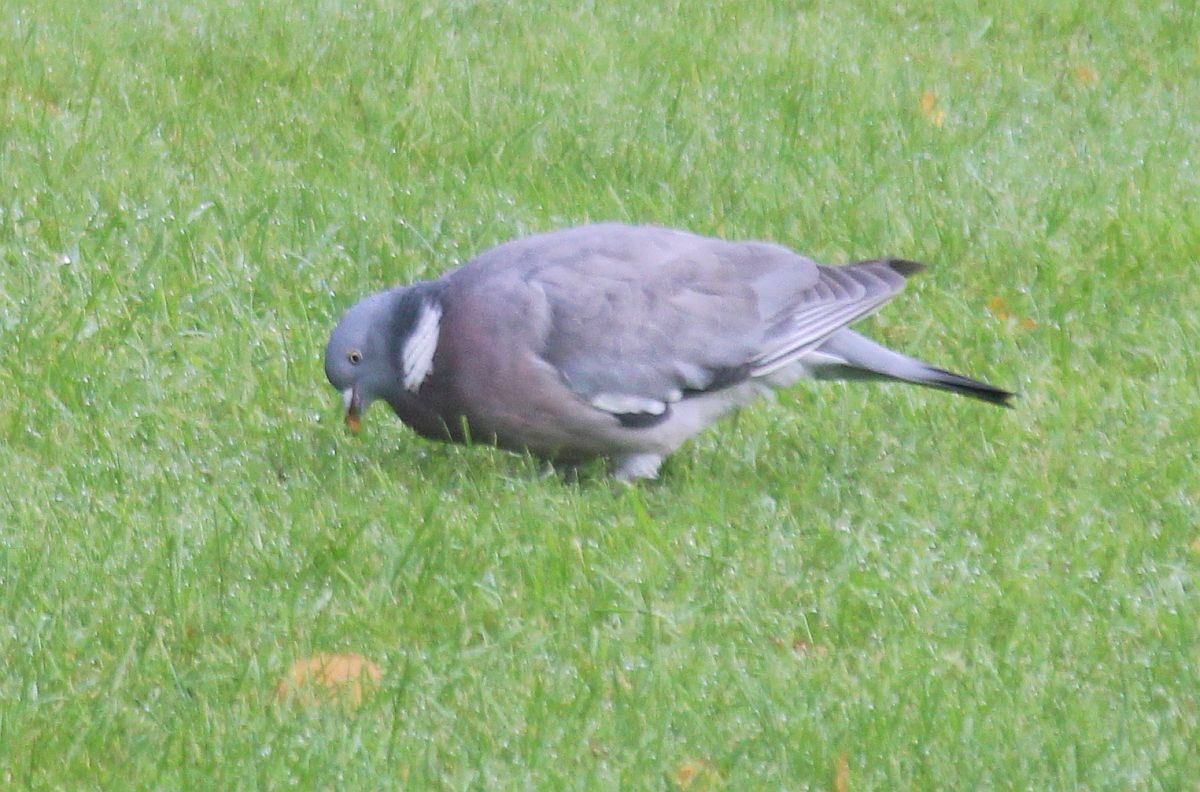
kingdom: Animalia
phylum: Chordata
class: Aves
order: Columbiformes
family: Columbidae
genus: Columba
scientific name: Columba palumbus
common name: Common wood pigeon
